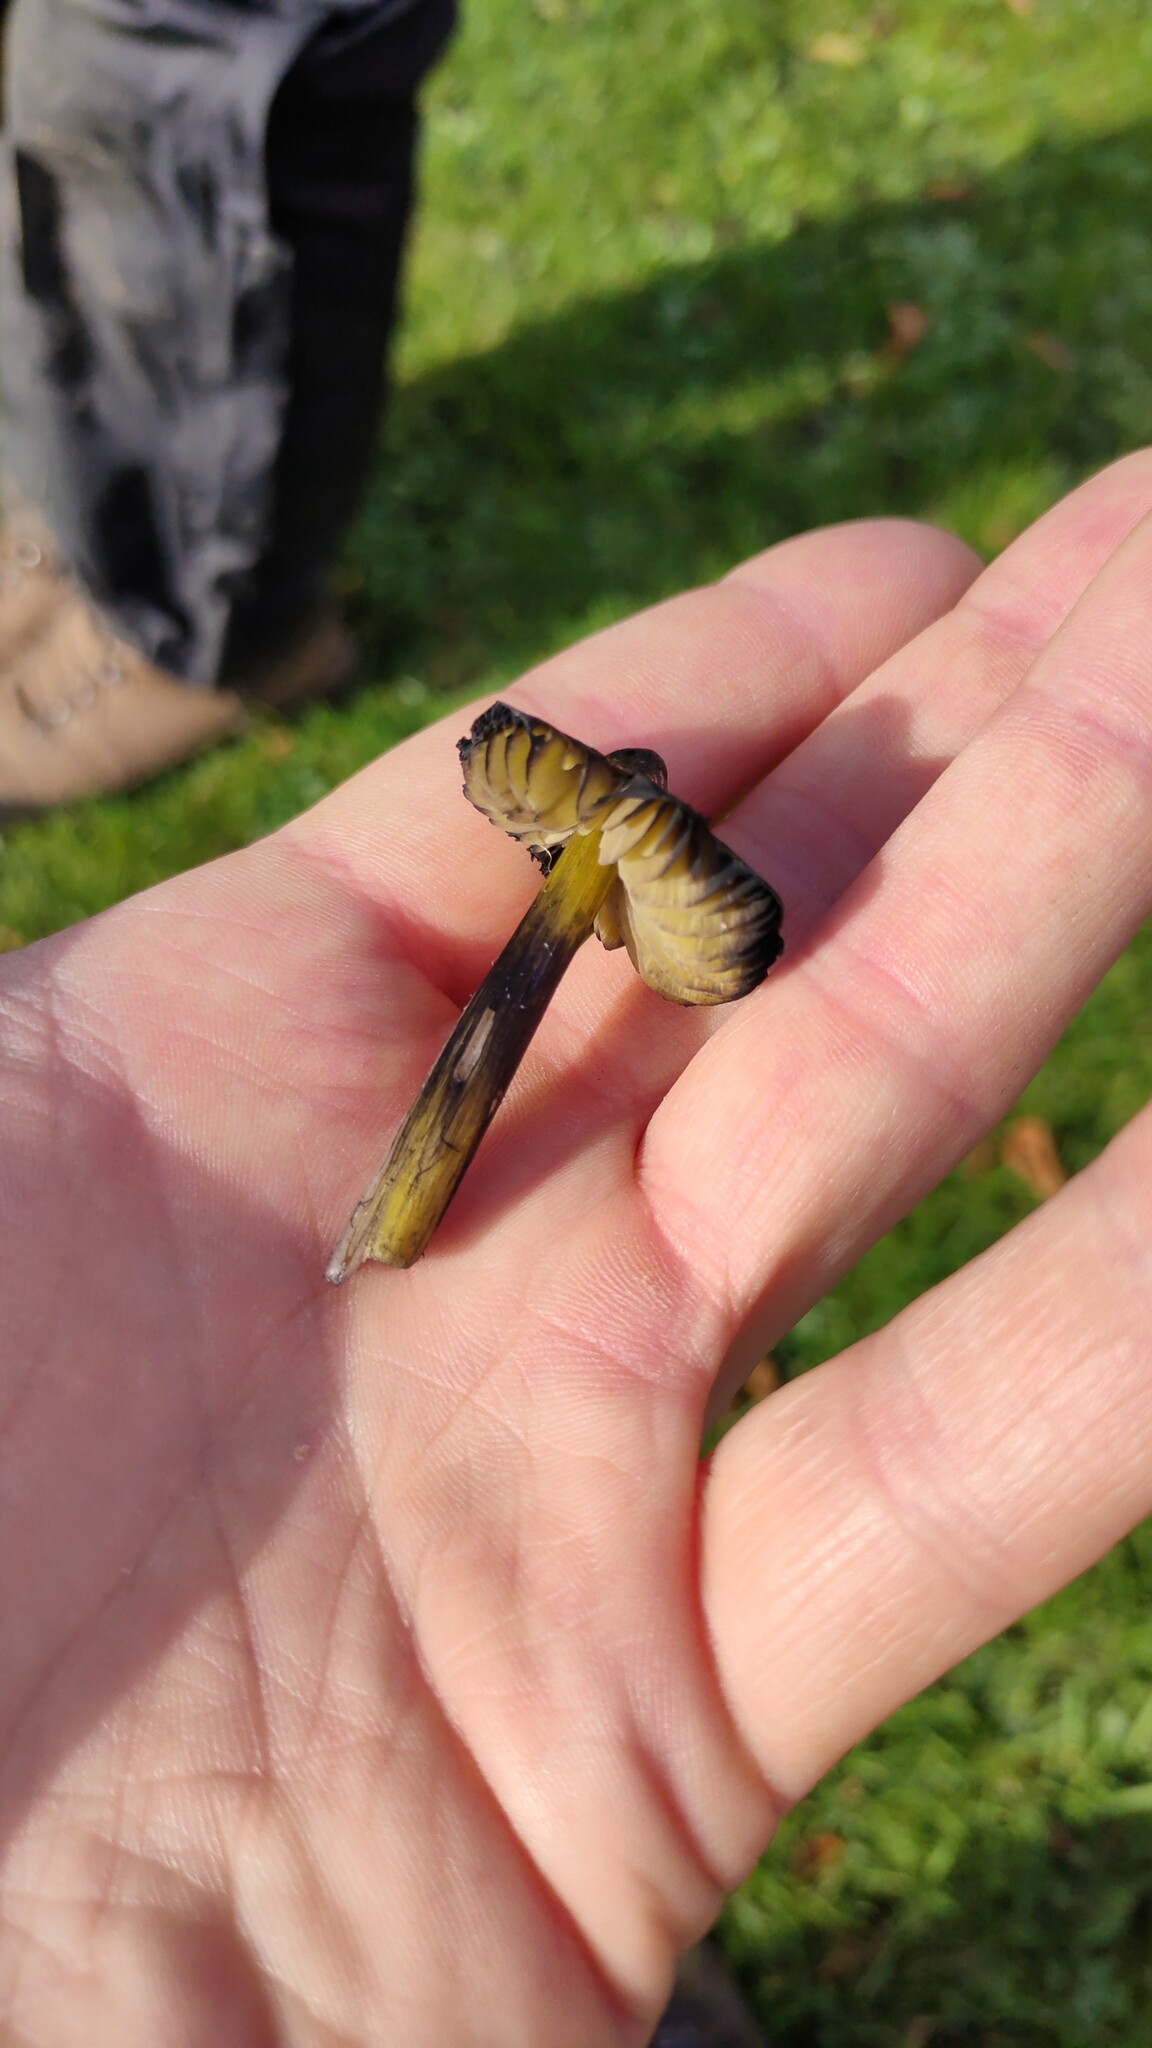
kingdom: Fungi
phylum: Basidiomycota
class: Agaricomycetes
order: Agaricales
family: Hygrophoraceae
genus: Hygrocybe
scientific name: Hygrocybe conica
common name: Blackening wax-cap
